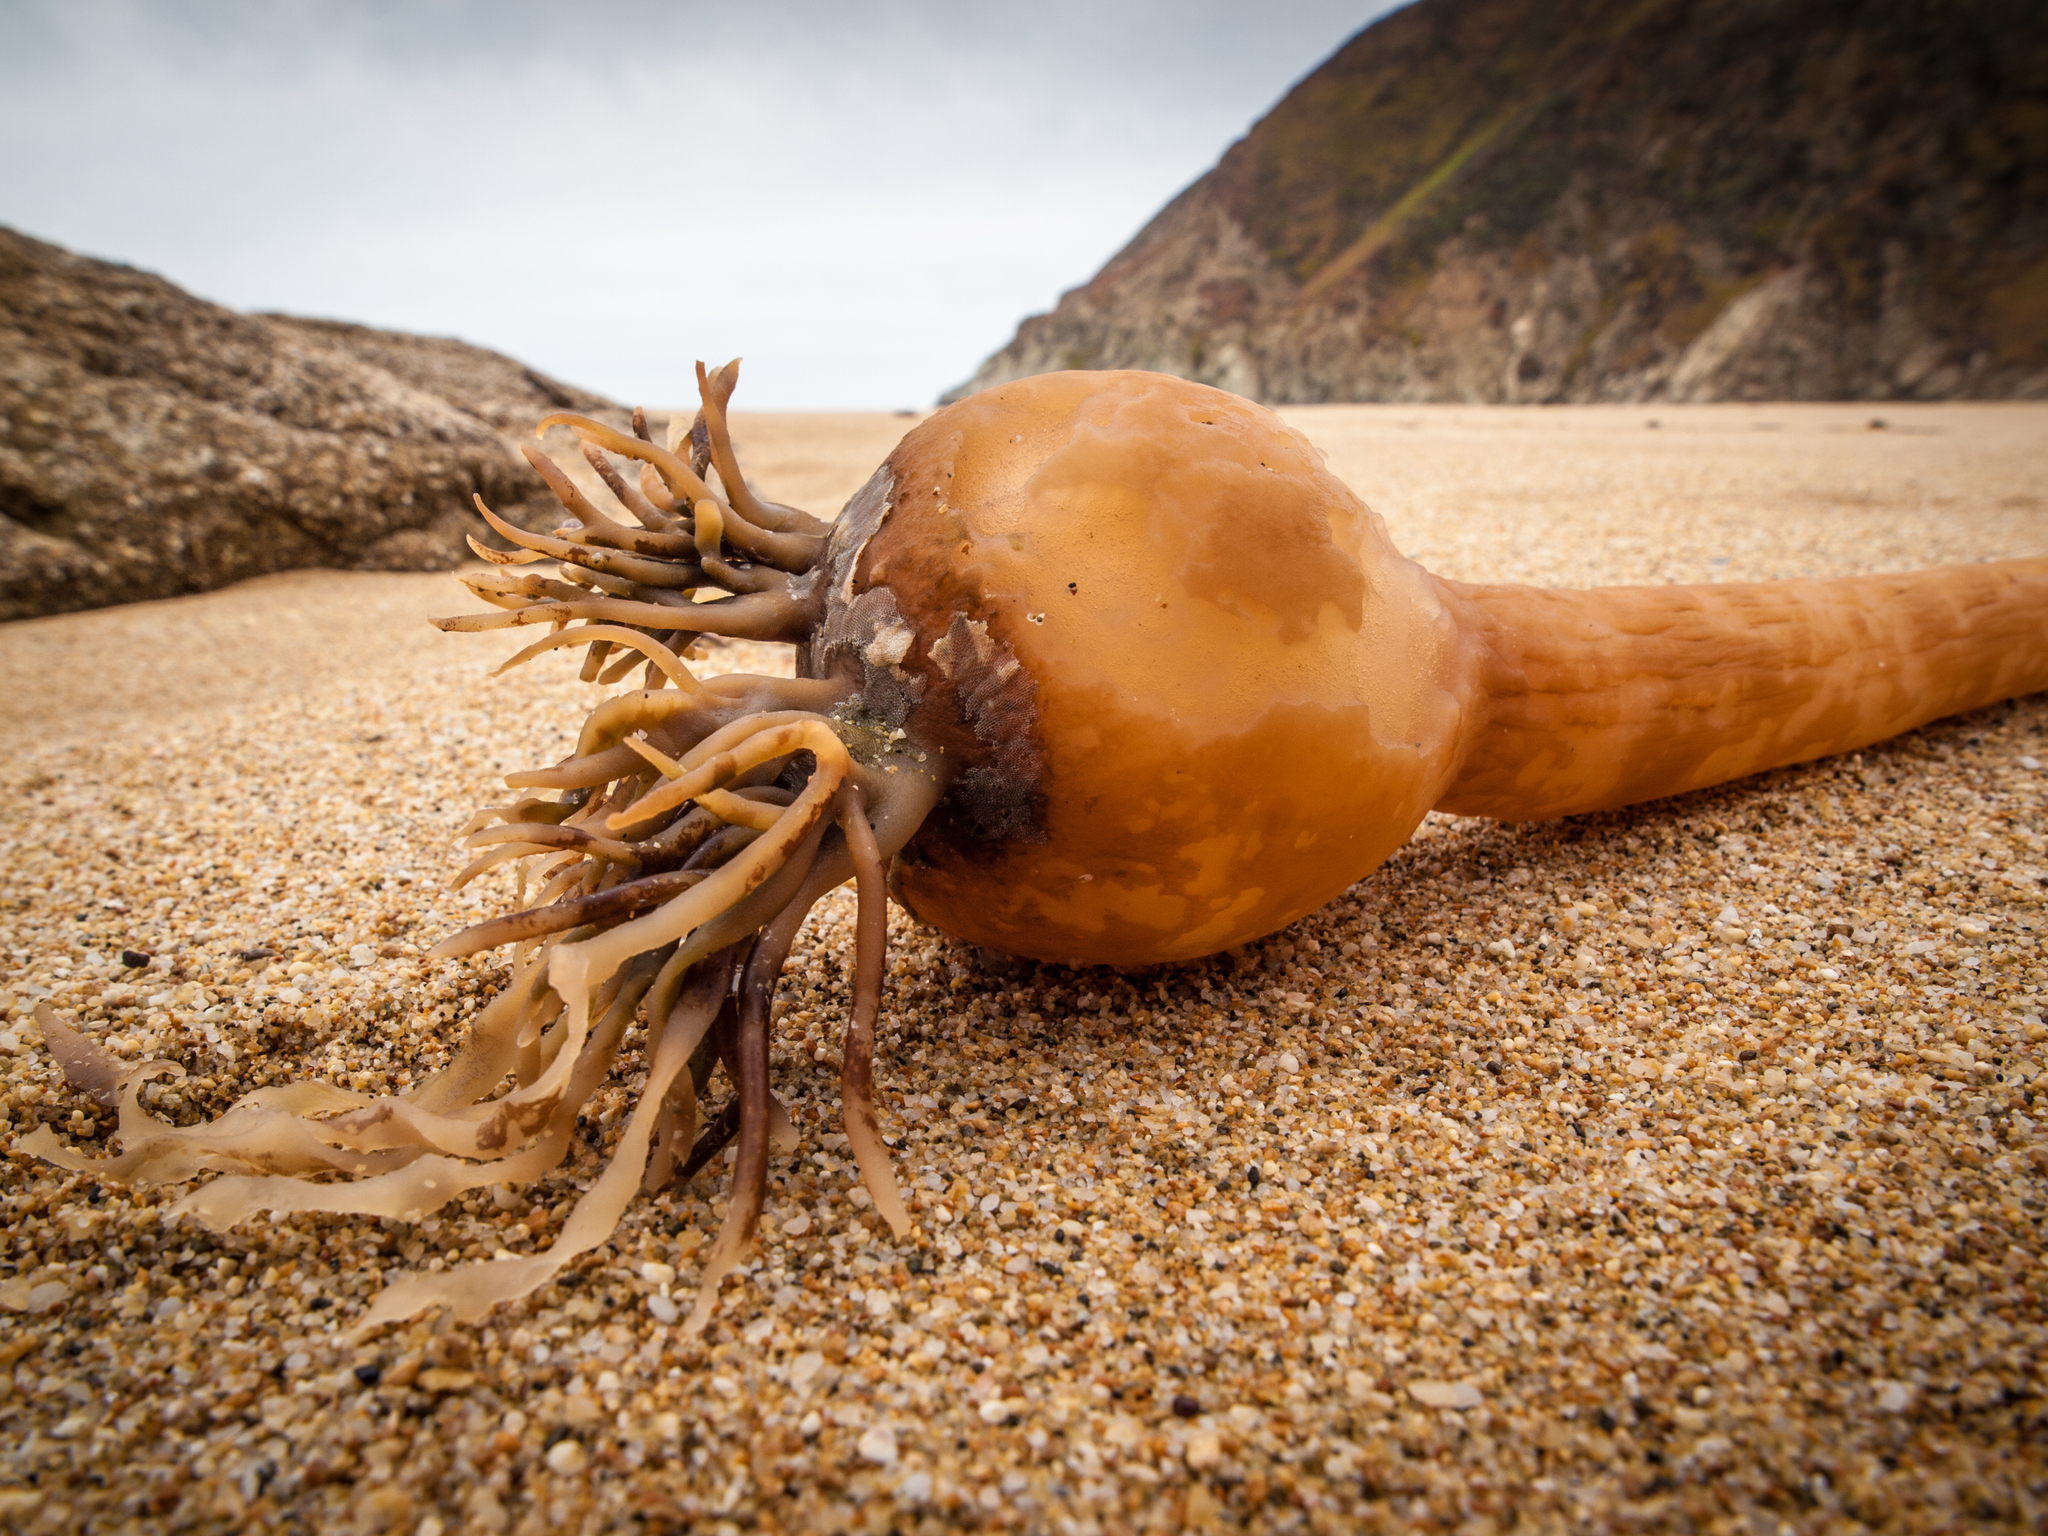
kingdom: Chromista
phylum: Ochrophyta
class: Phaeophyceae
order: Laminariales
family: Laminariaceae
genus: Nereocystis
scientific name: Nereocystis luetkeana
